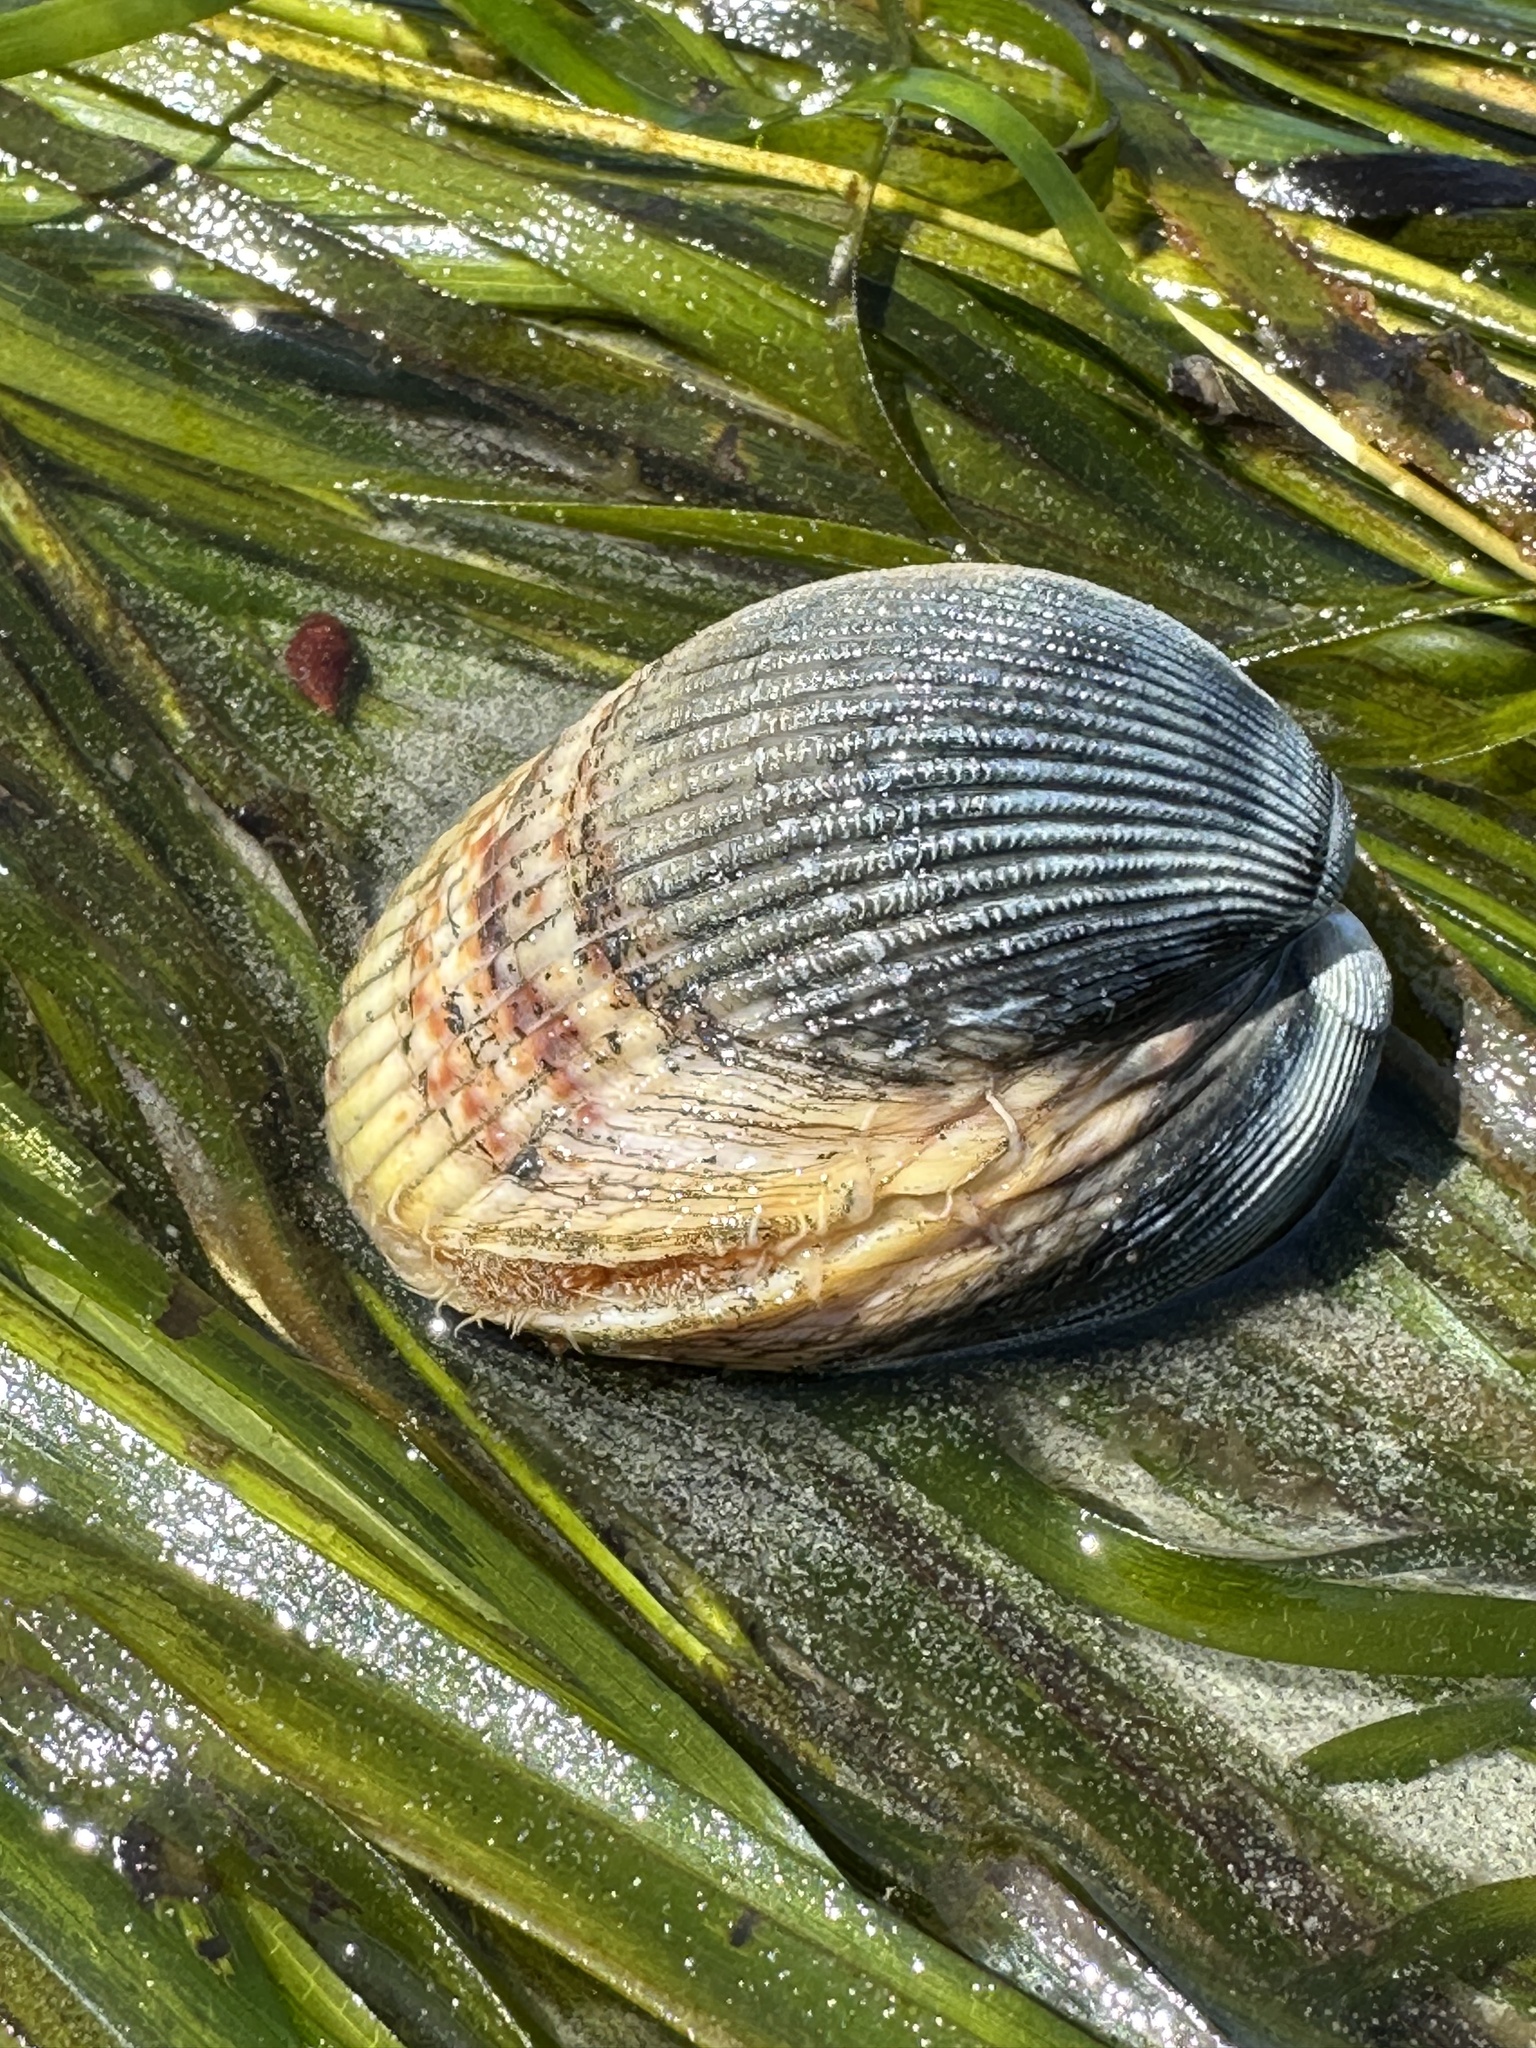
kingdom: Animalia
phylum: Mollusca
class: Bivalvia
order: Cardiida
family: Cardiidae
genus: Clinocardium
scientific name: Clinocardium nuttallii
